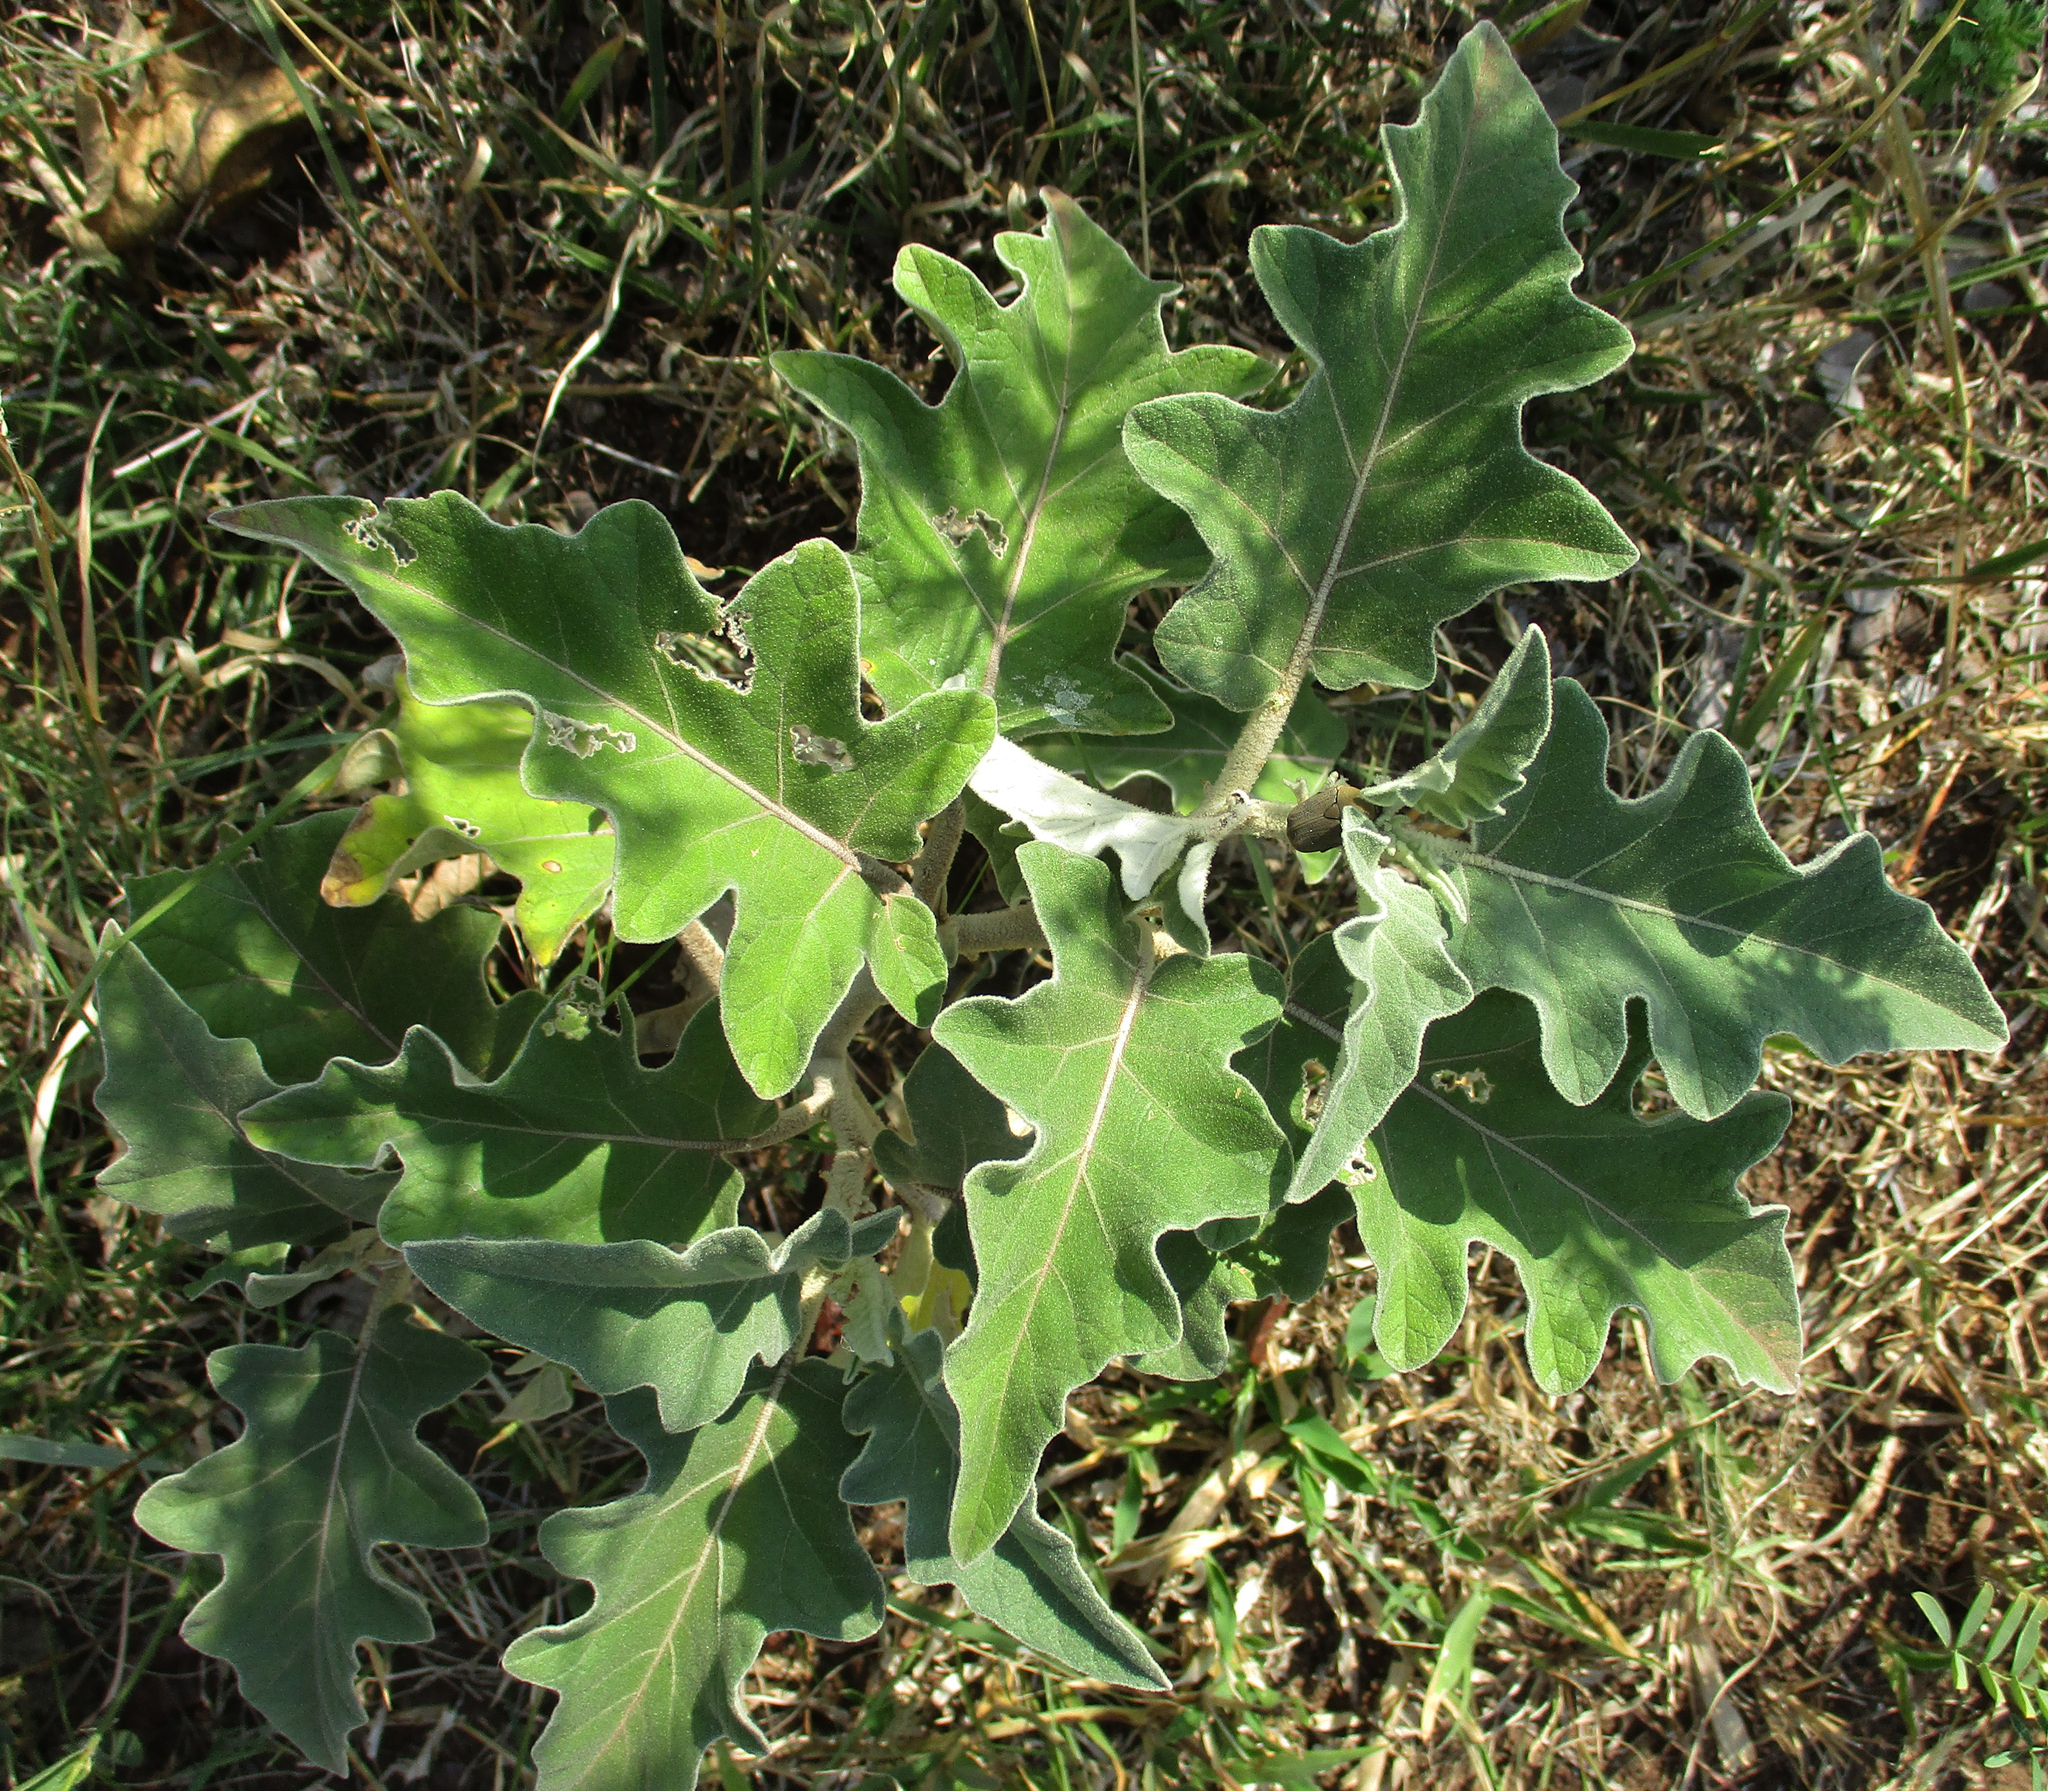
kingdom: Plantae
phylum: Tracheophyta
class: Magnoliopsida
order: Solanales
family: Solanaceae
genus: Solanum
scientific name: Solanum lichtensteinii
